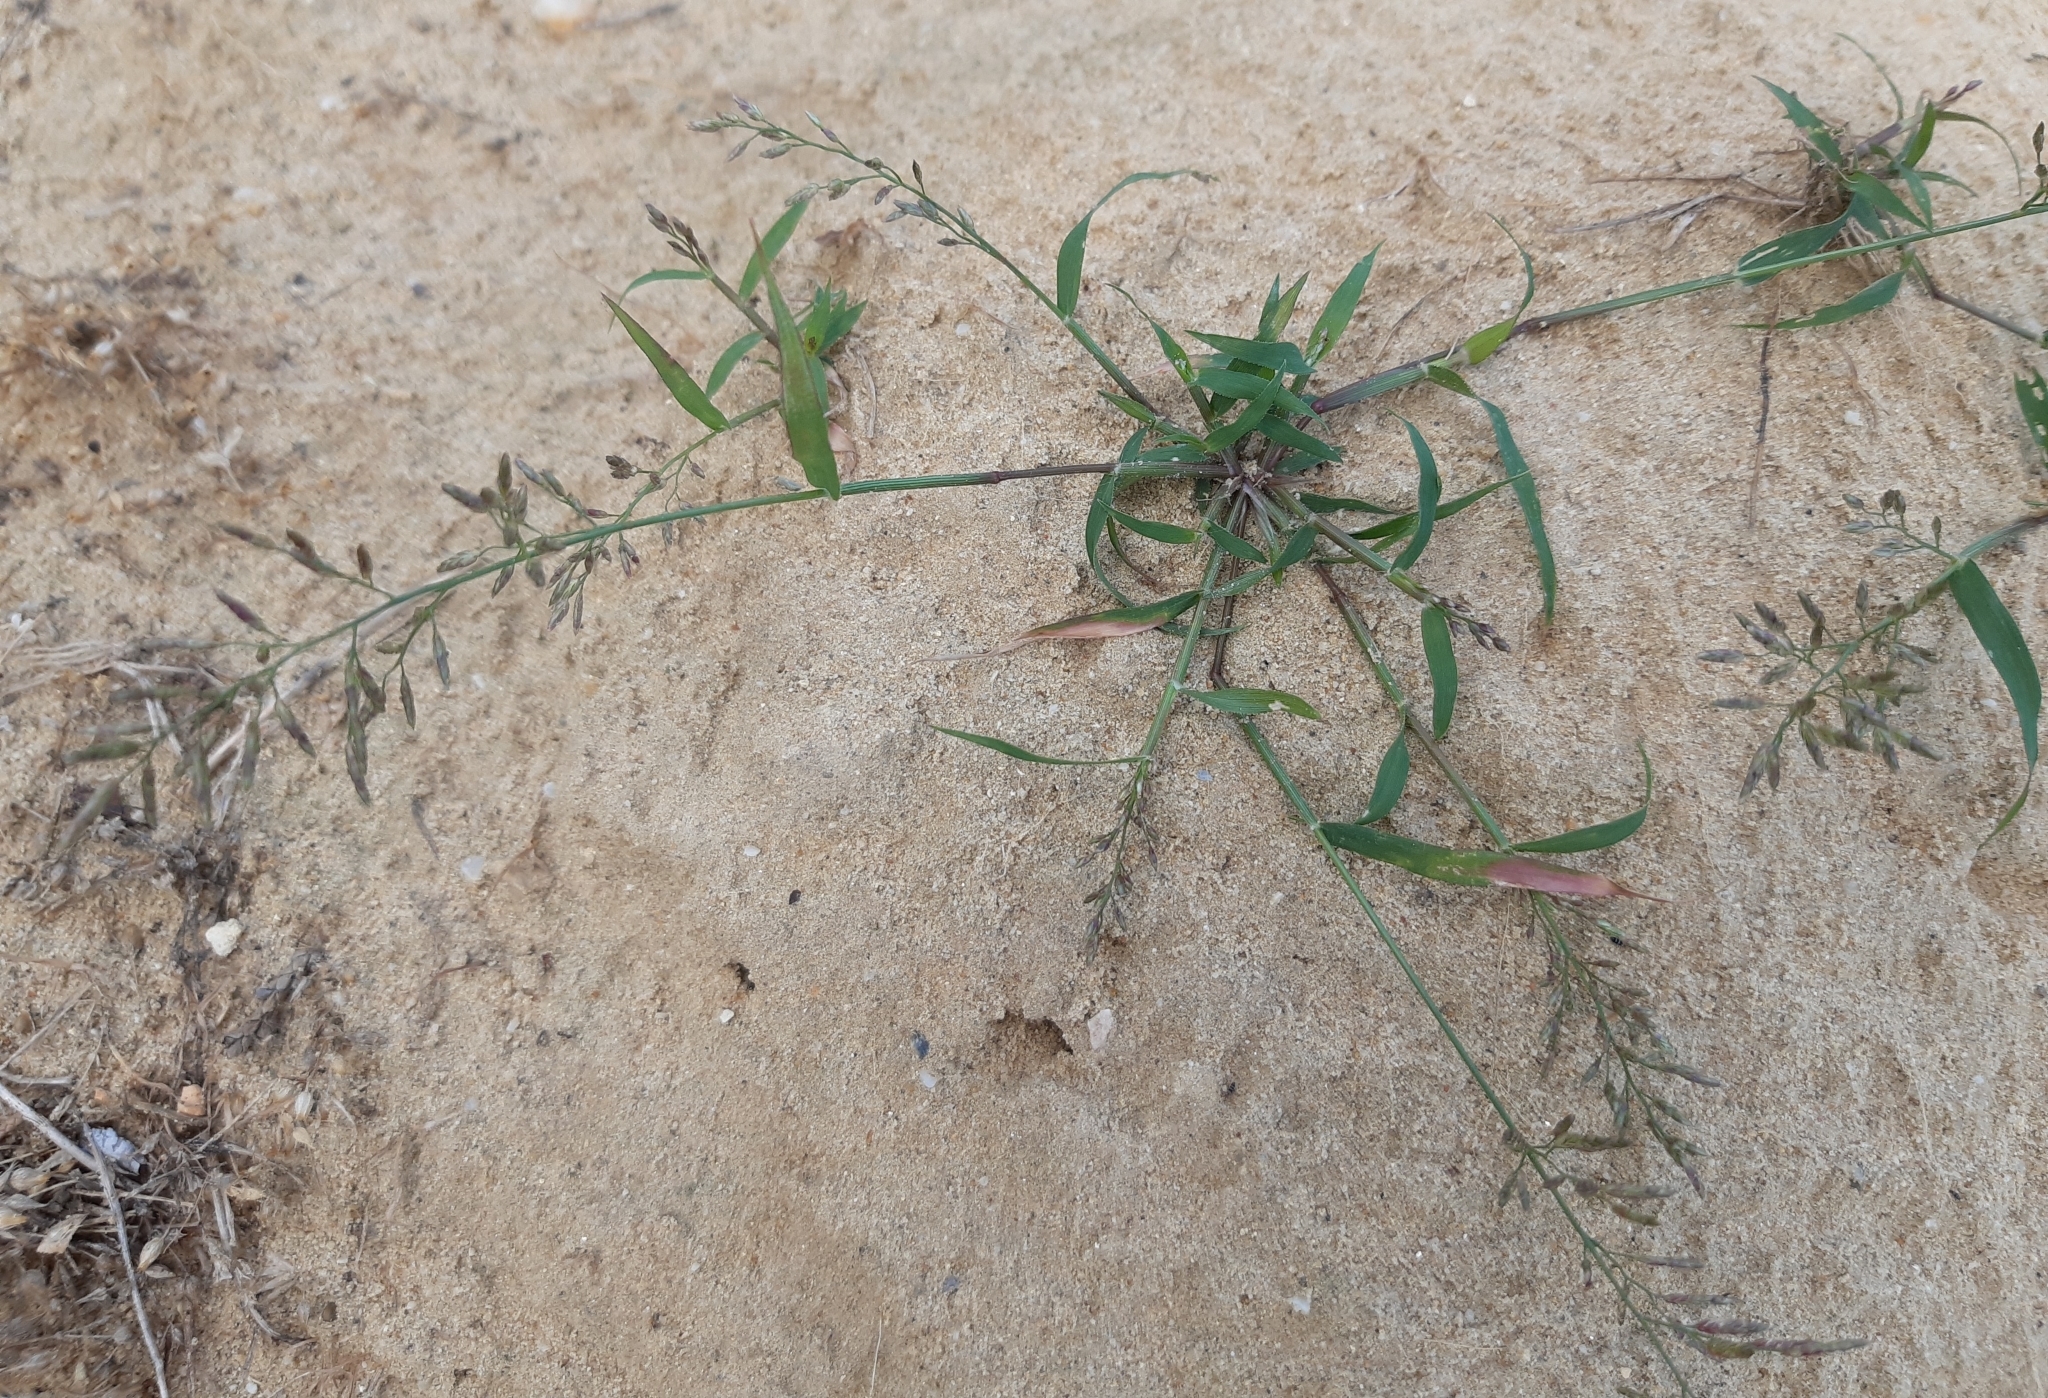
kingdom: Plantae
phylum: Tracheophyta
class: Liliopsida
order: Poales
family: Poaceae
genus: Eragrostis
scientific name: Eragrostis minor
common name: Small love-grass
